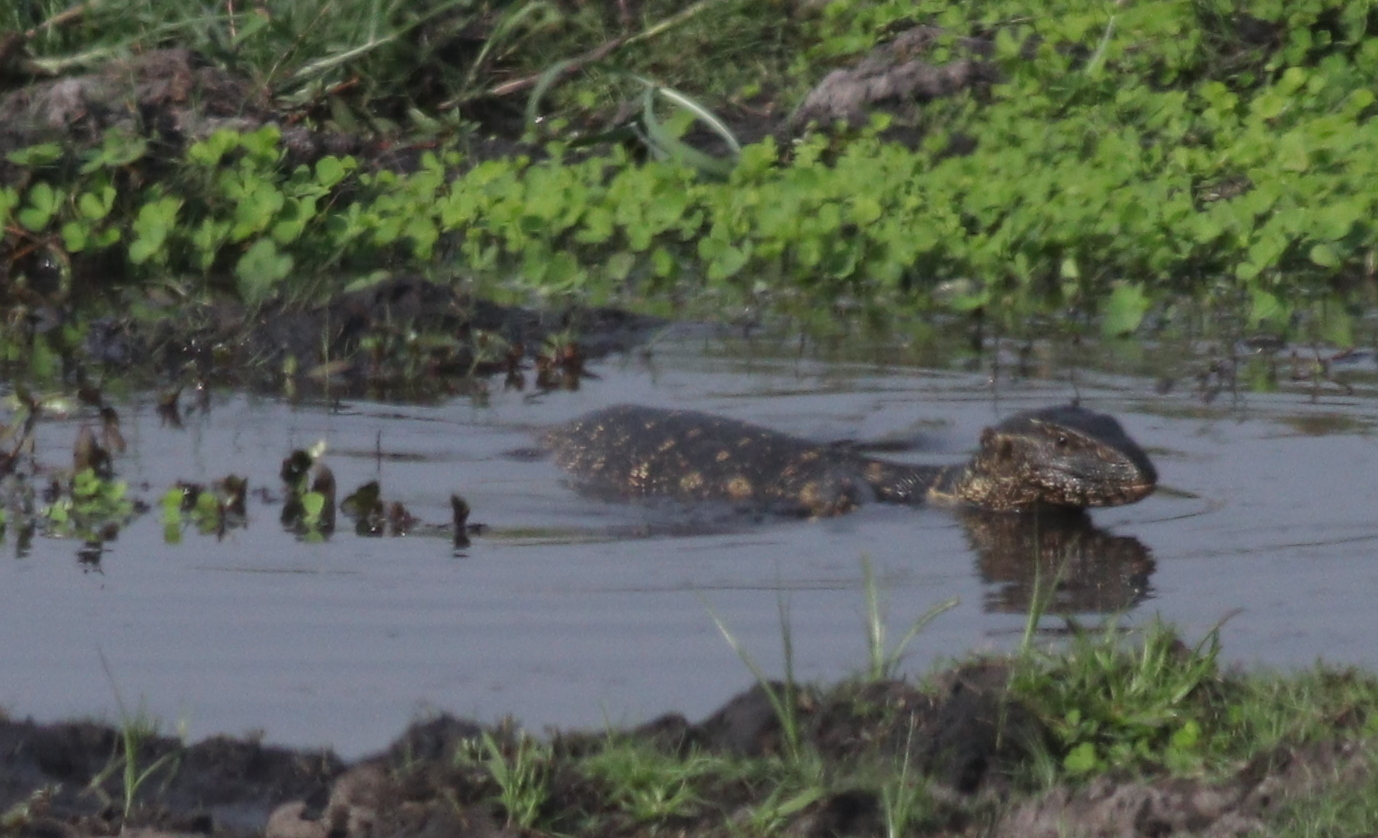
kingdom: Animalia
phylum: Chordata
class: Squamata
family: Varanidae
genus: Varanus
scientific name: Varanus niloticus
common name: Nile monitor
